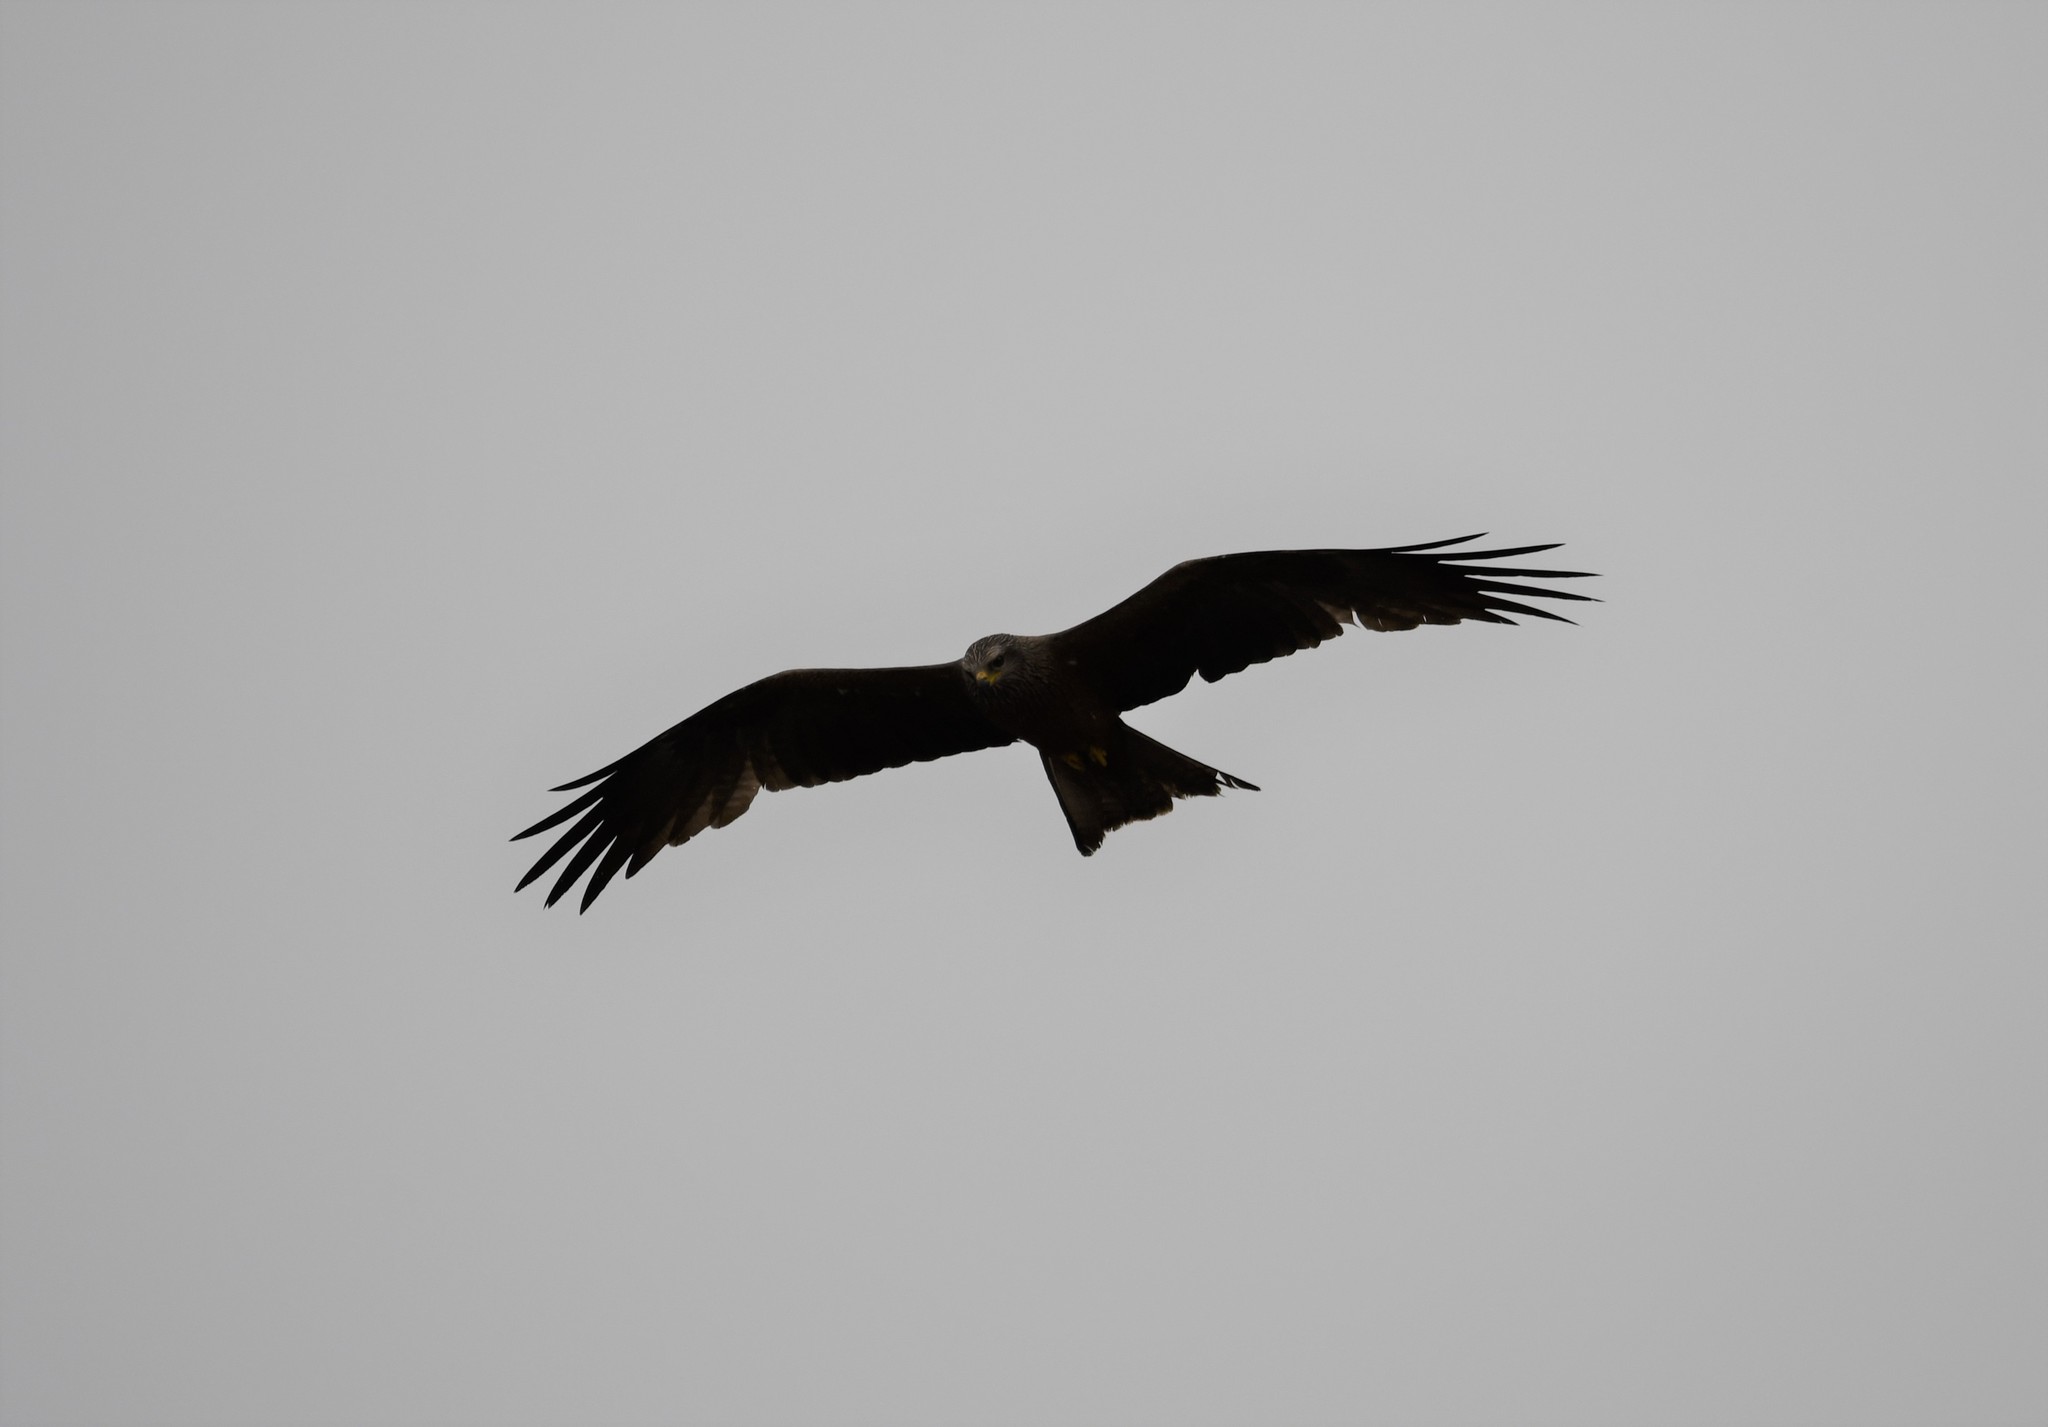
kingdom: Animalia
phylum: Chordata
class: Aves
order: Accipitriformes
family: Accipitridae
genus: Milvus
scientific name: Milvus migrans
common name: Black kite
